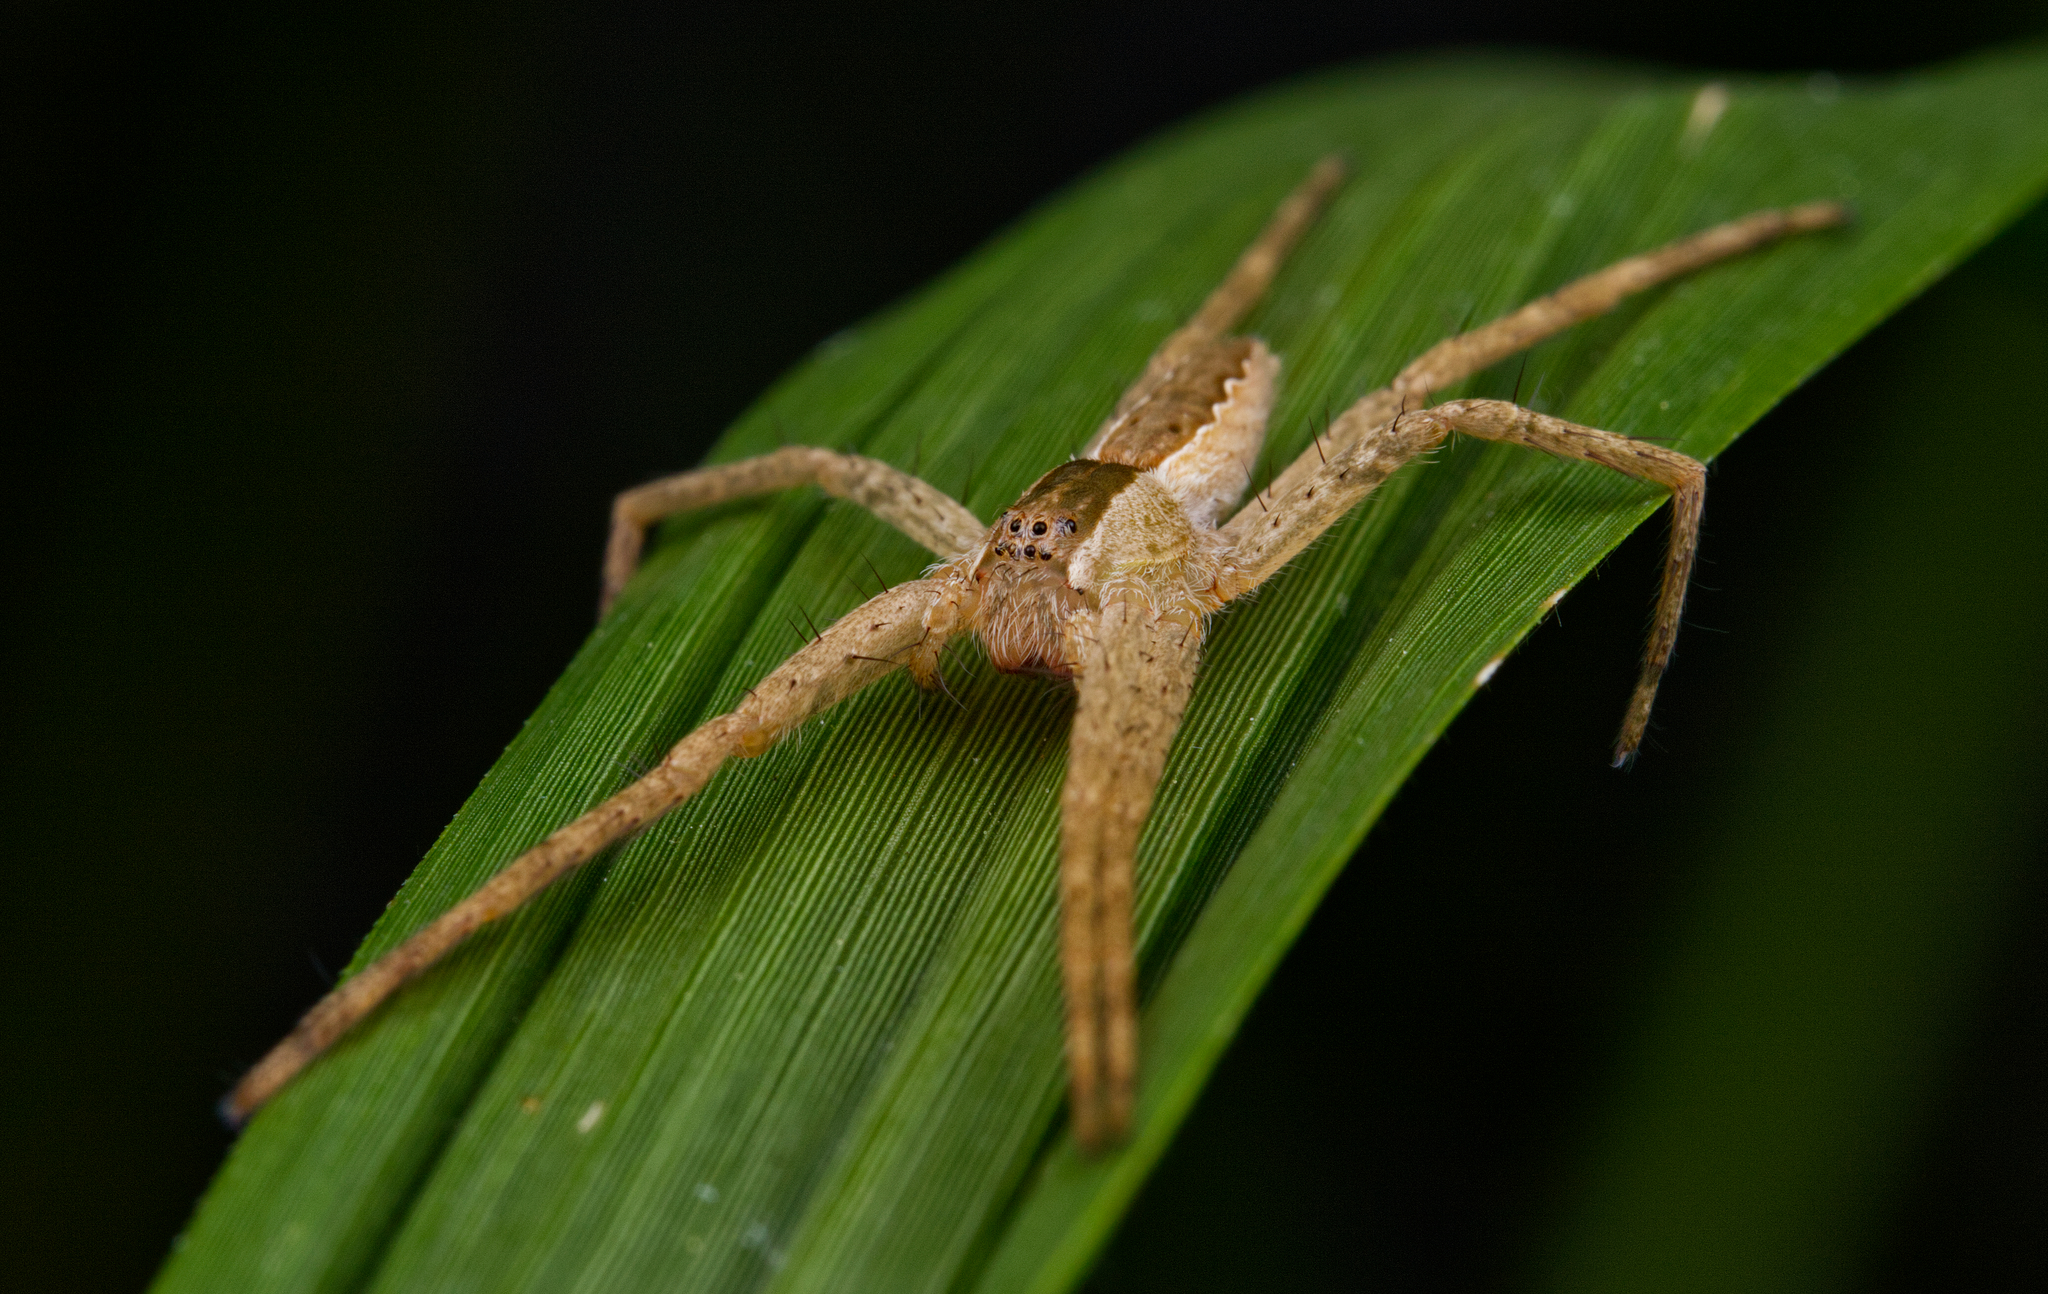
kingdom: Animalia
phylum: Arthropoda
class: Arachnida
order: Araneae
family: Pisauridae
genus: Pisaurina
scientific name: Pisaurina mira
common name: American nursery web spider
